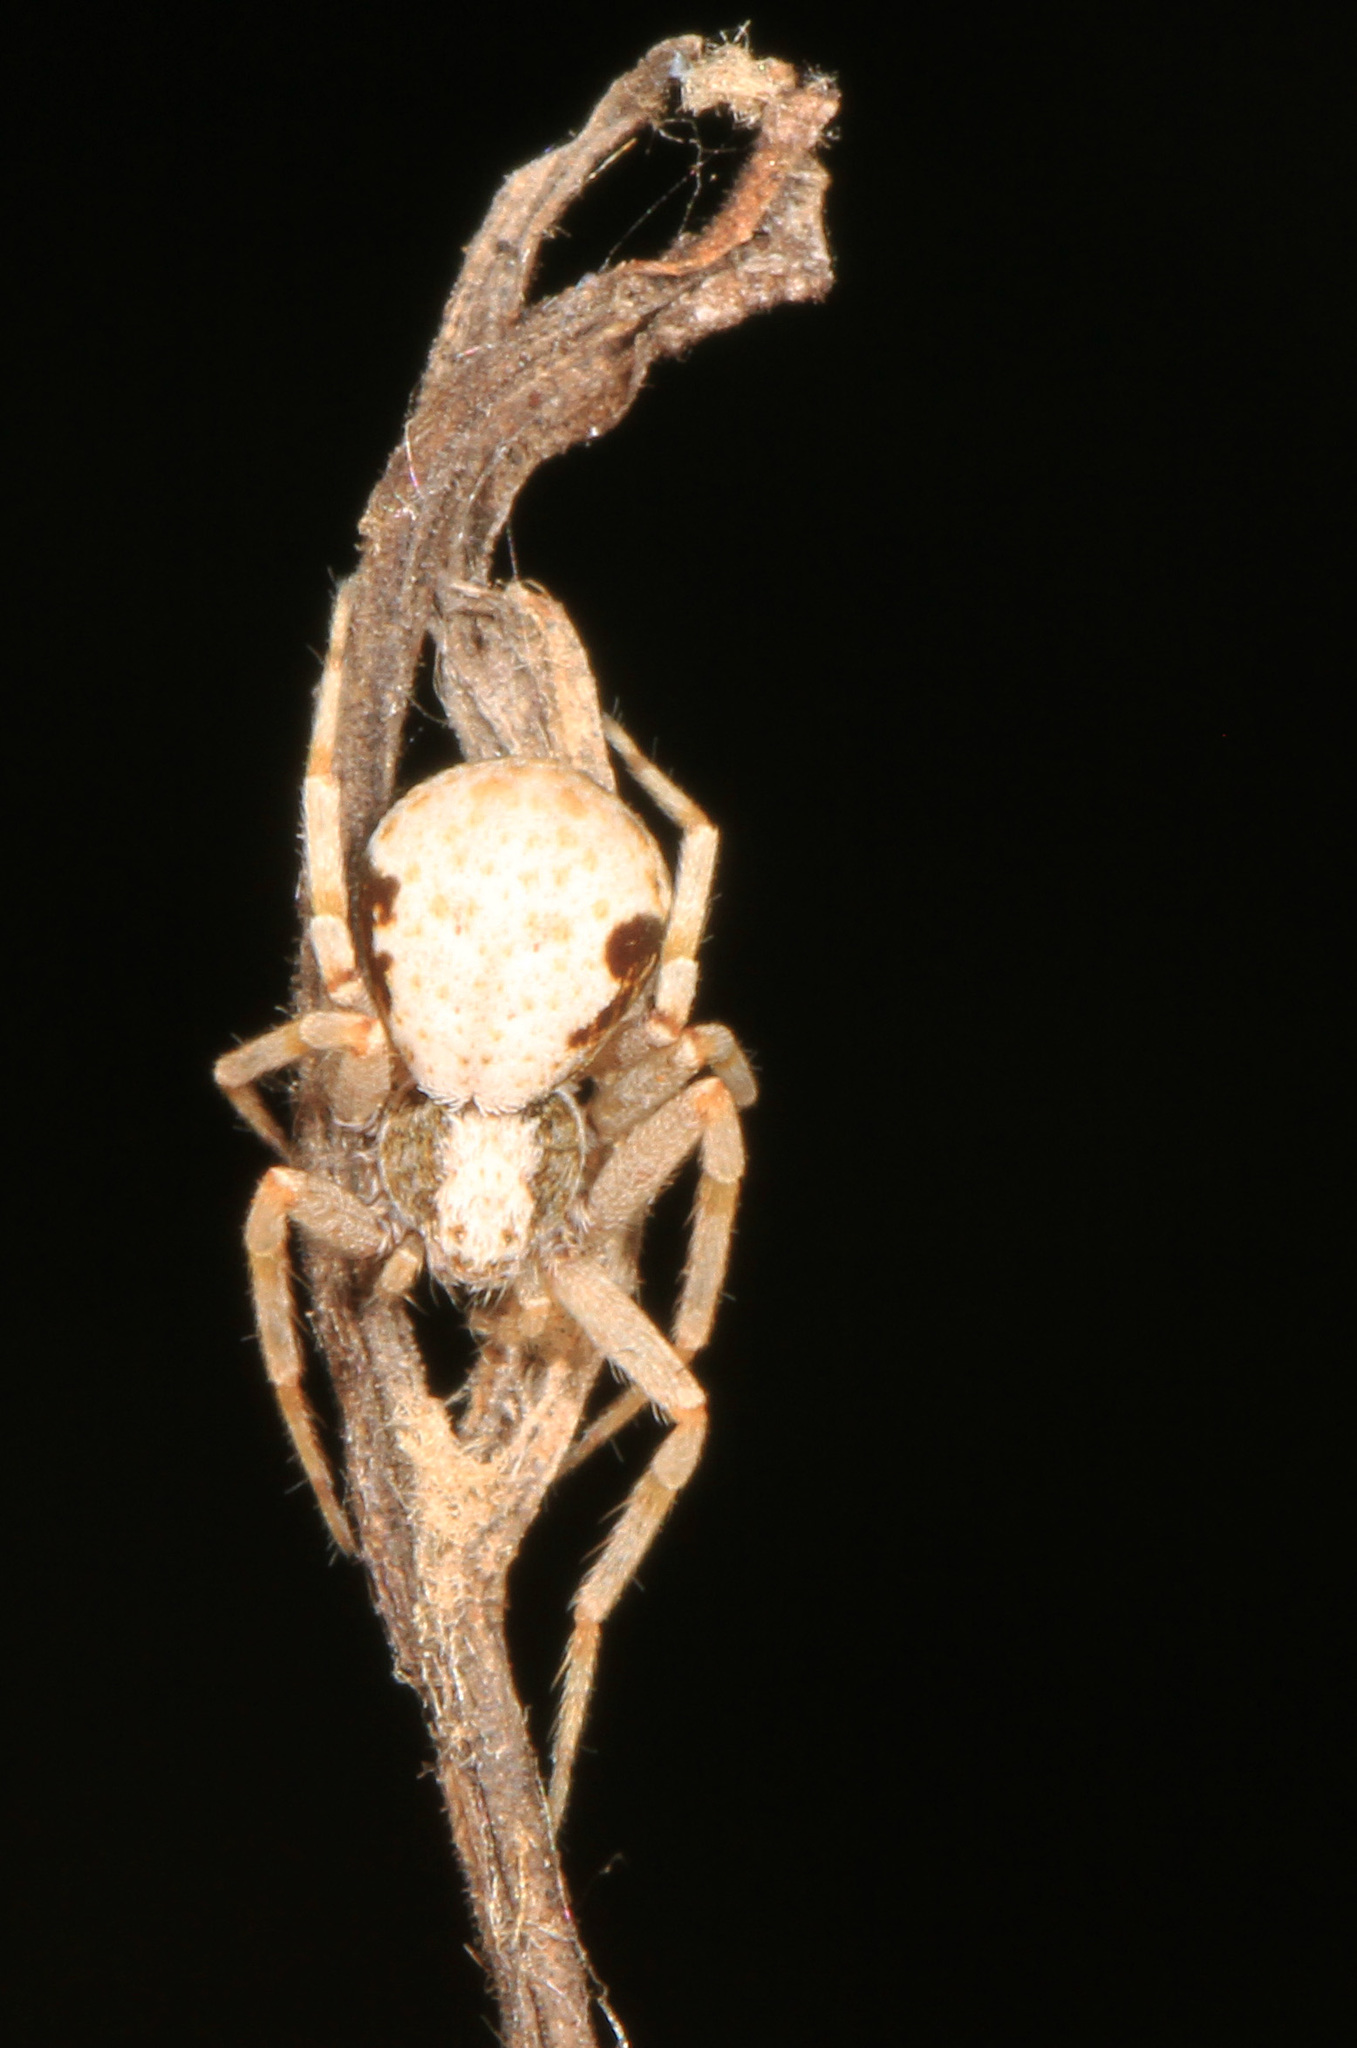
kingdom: Animalia
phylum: Arthropoda
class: Arachnida
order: Araneae
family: Philodromidae
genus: Philodromus
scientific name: Philodromus marxi
